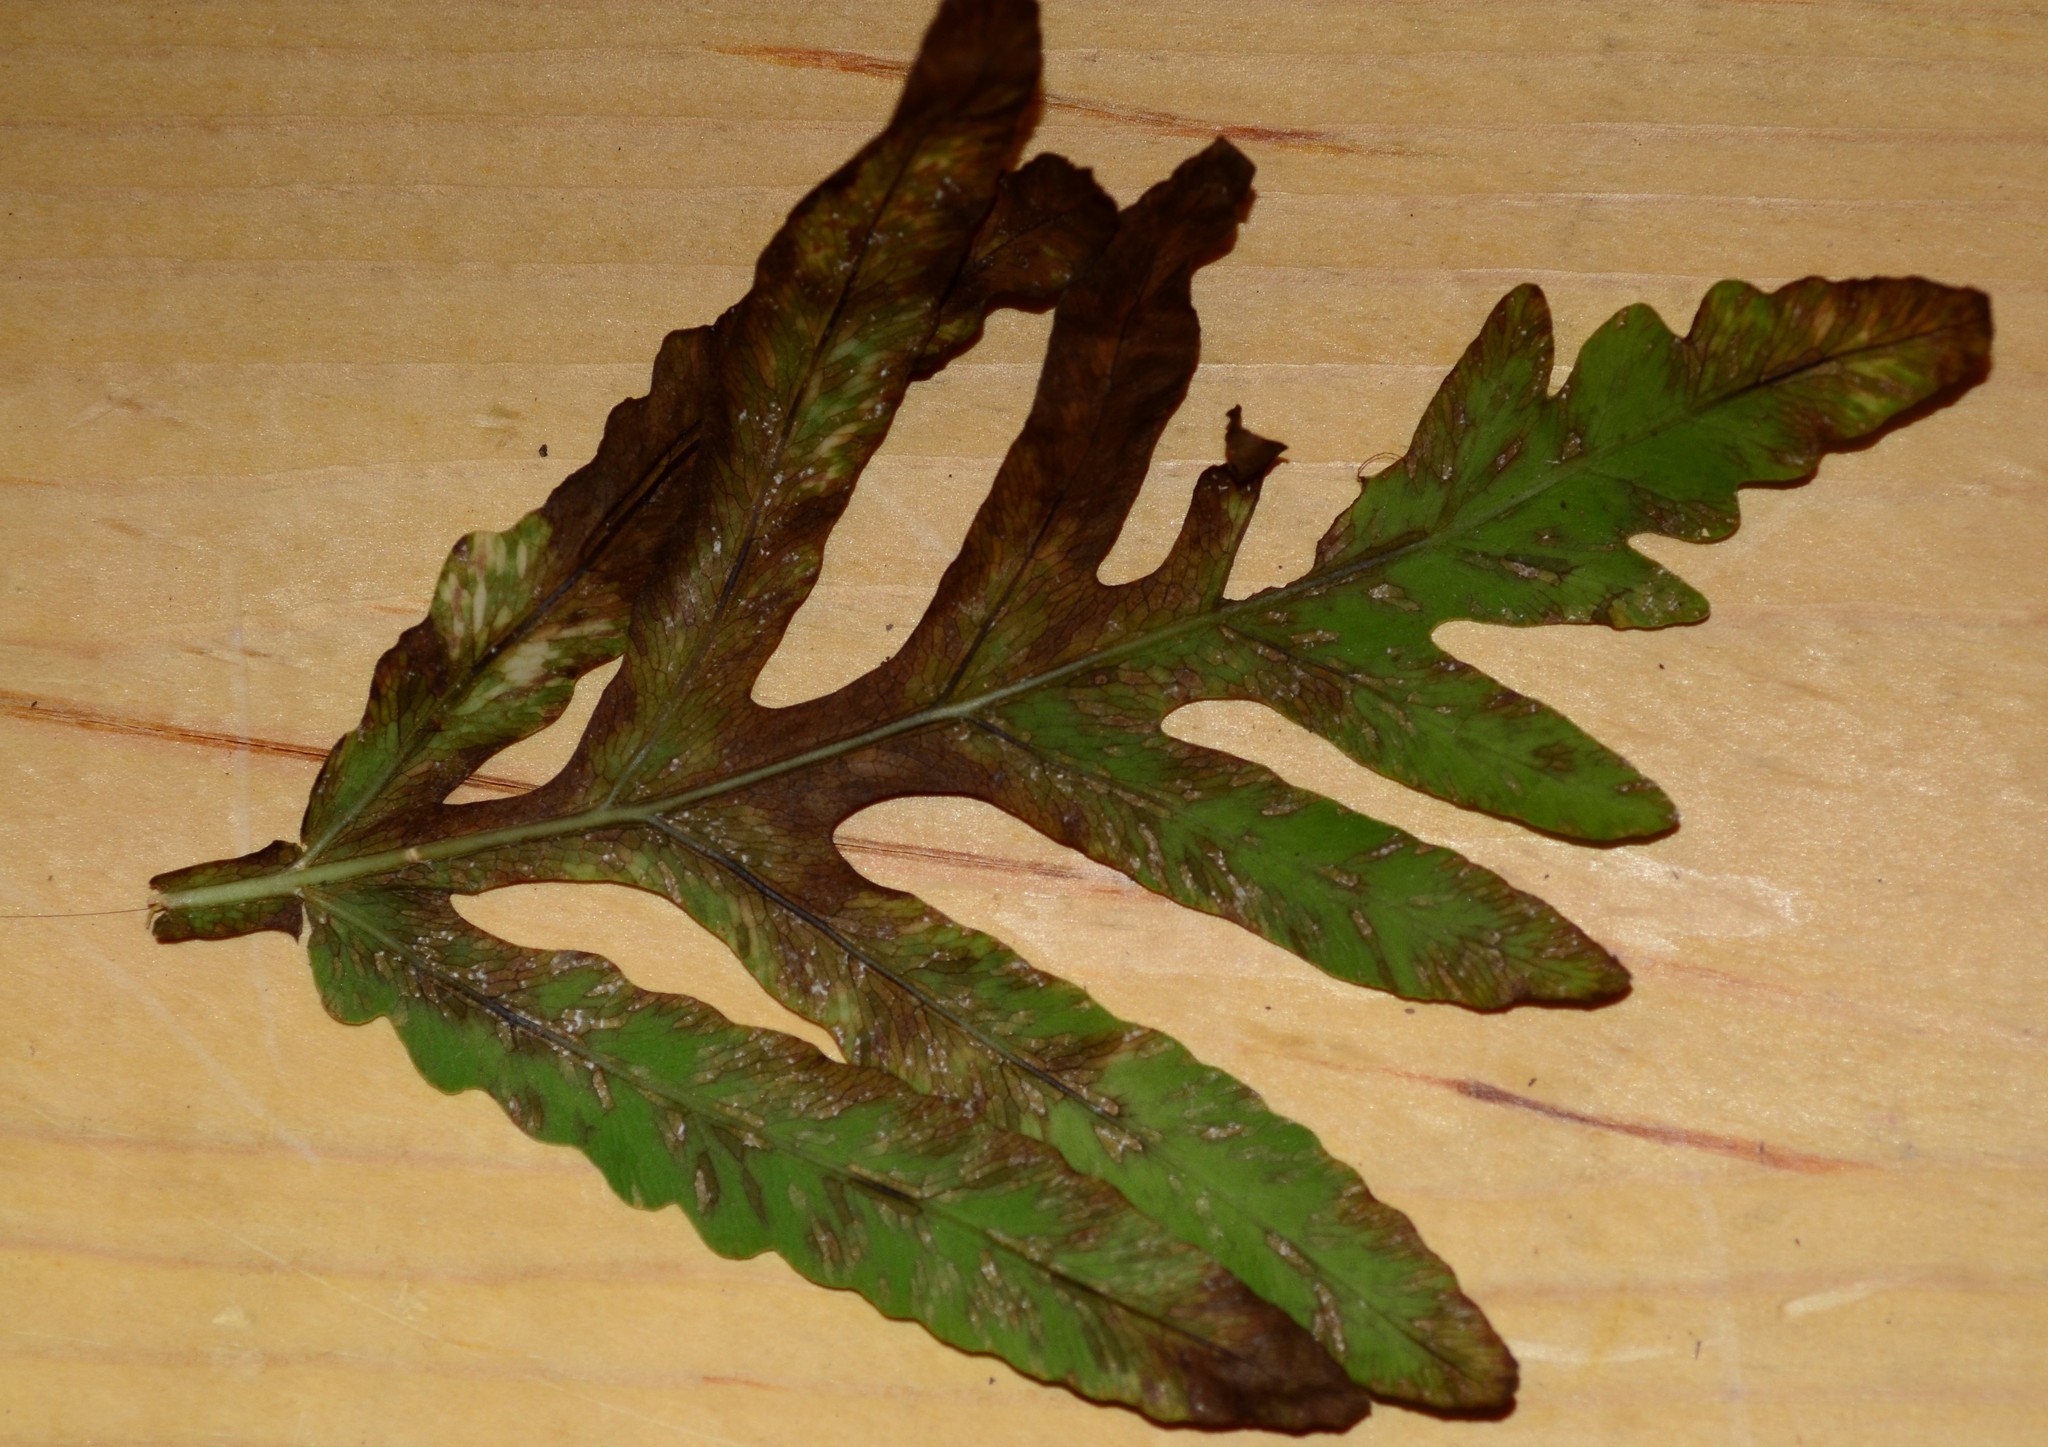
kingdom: Fungi
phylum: Basidiomycota
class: Pucciniomycetes
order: Pucciniales
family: Pucciniastraceae
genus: Uredinopsis
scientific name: Uredinopsis americana
